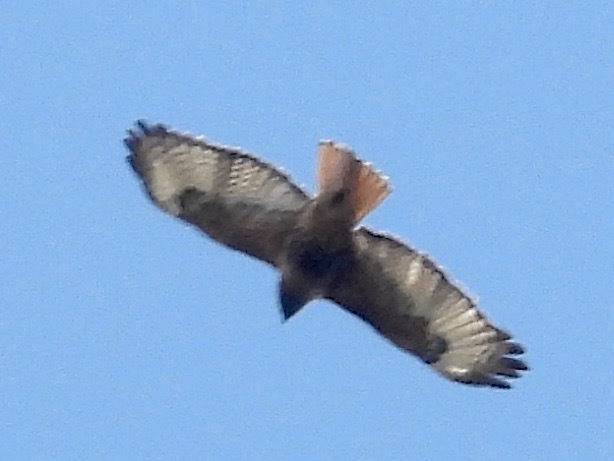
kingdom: Animalia
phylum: Chordata
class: Aves
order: Accipitriformes
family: Accipitridae
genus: Buteo
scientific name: Buteo jamaicensis
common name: Red-tailed hawk
